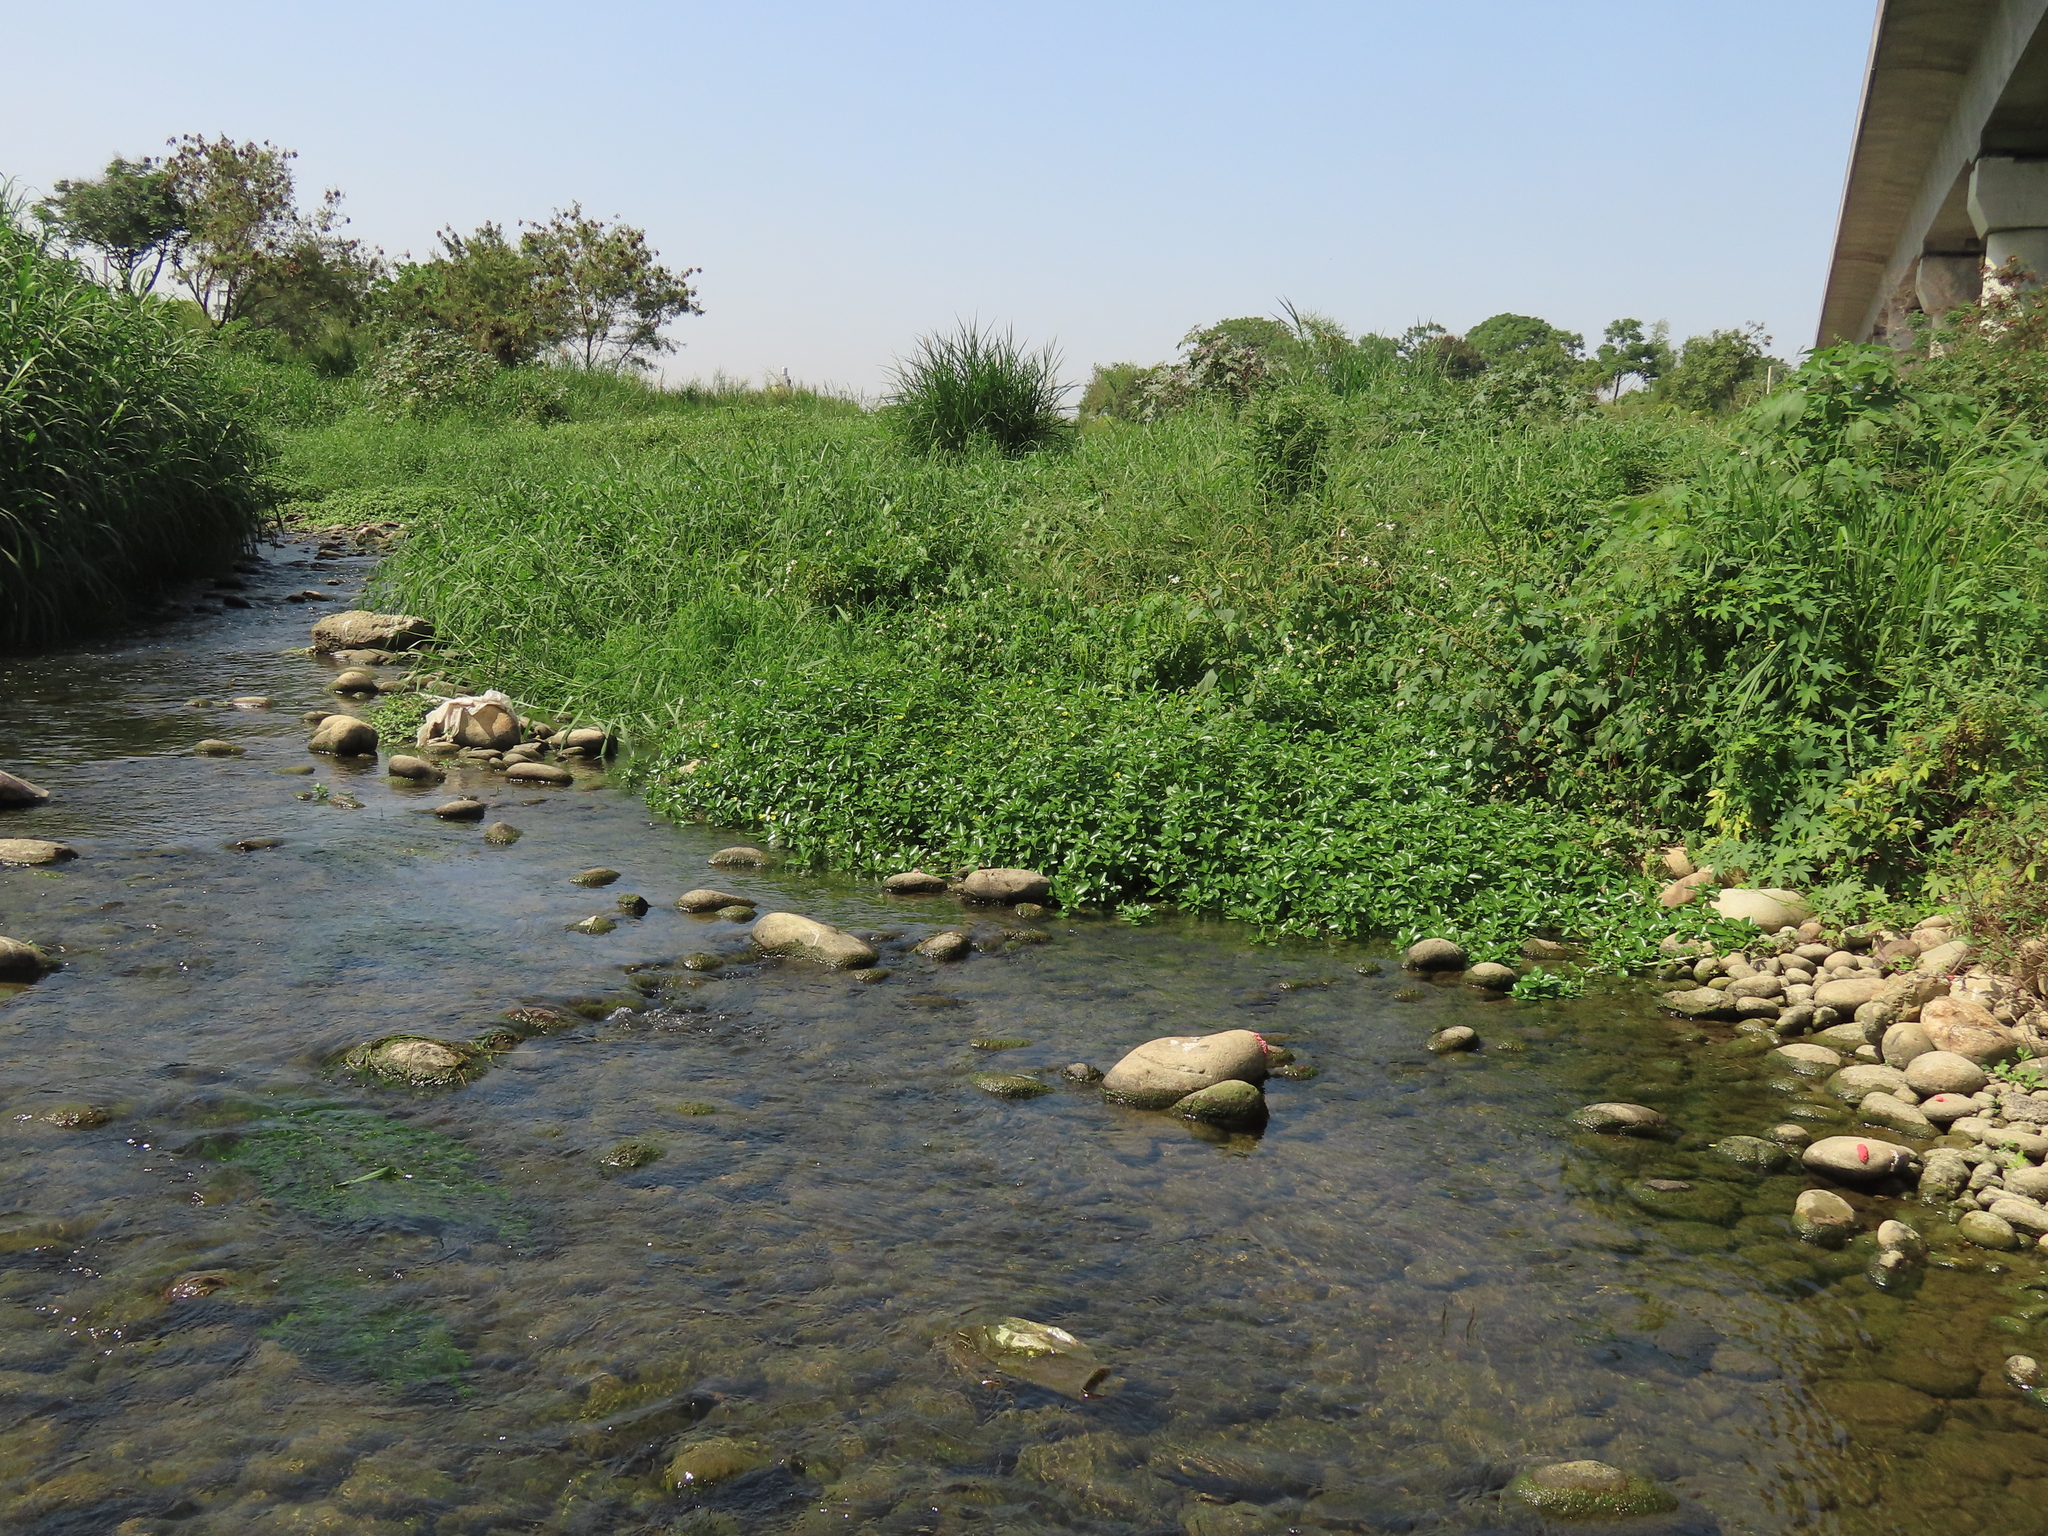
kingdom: Plantae
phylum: Tracheophyta
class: Magnoliopsida
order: Myrtales
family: Onagraceae
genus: Ludwigia
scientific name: Ludwigia taiwanensis
